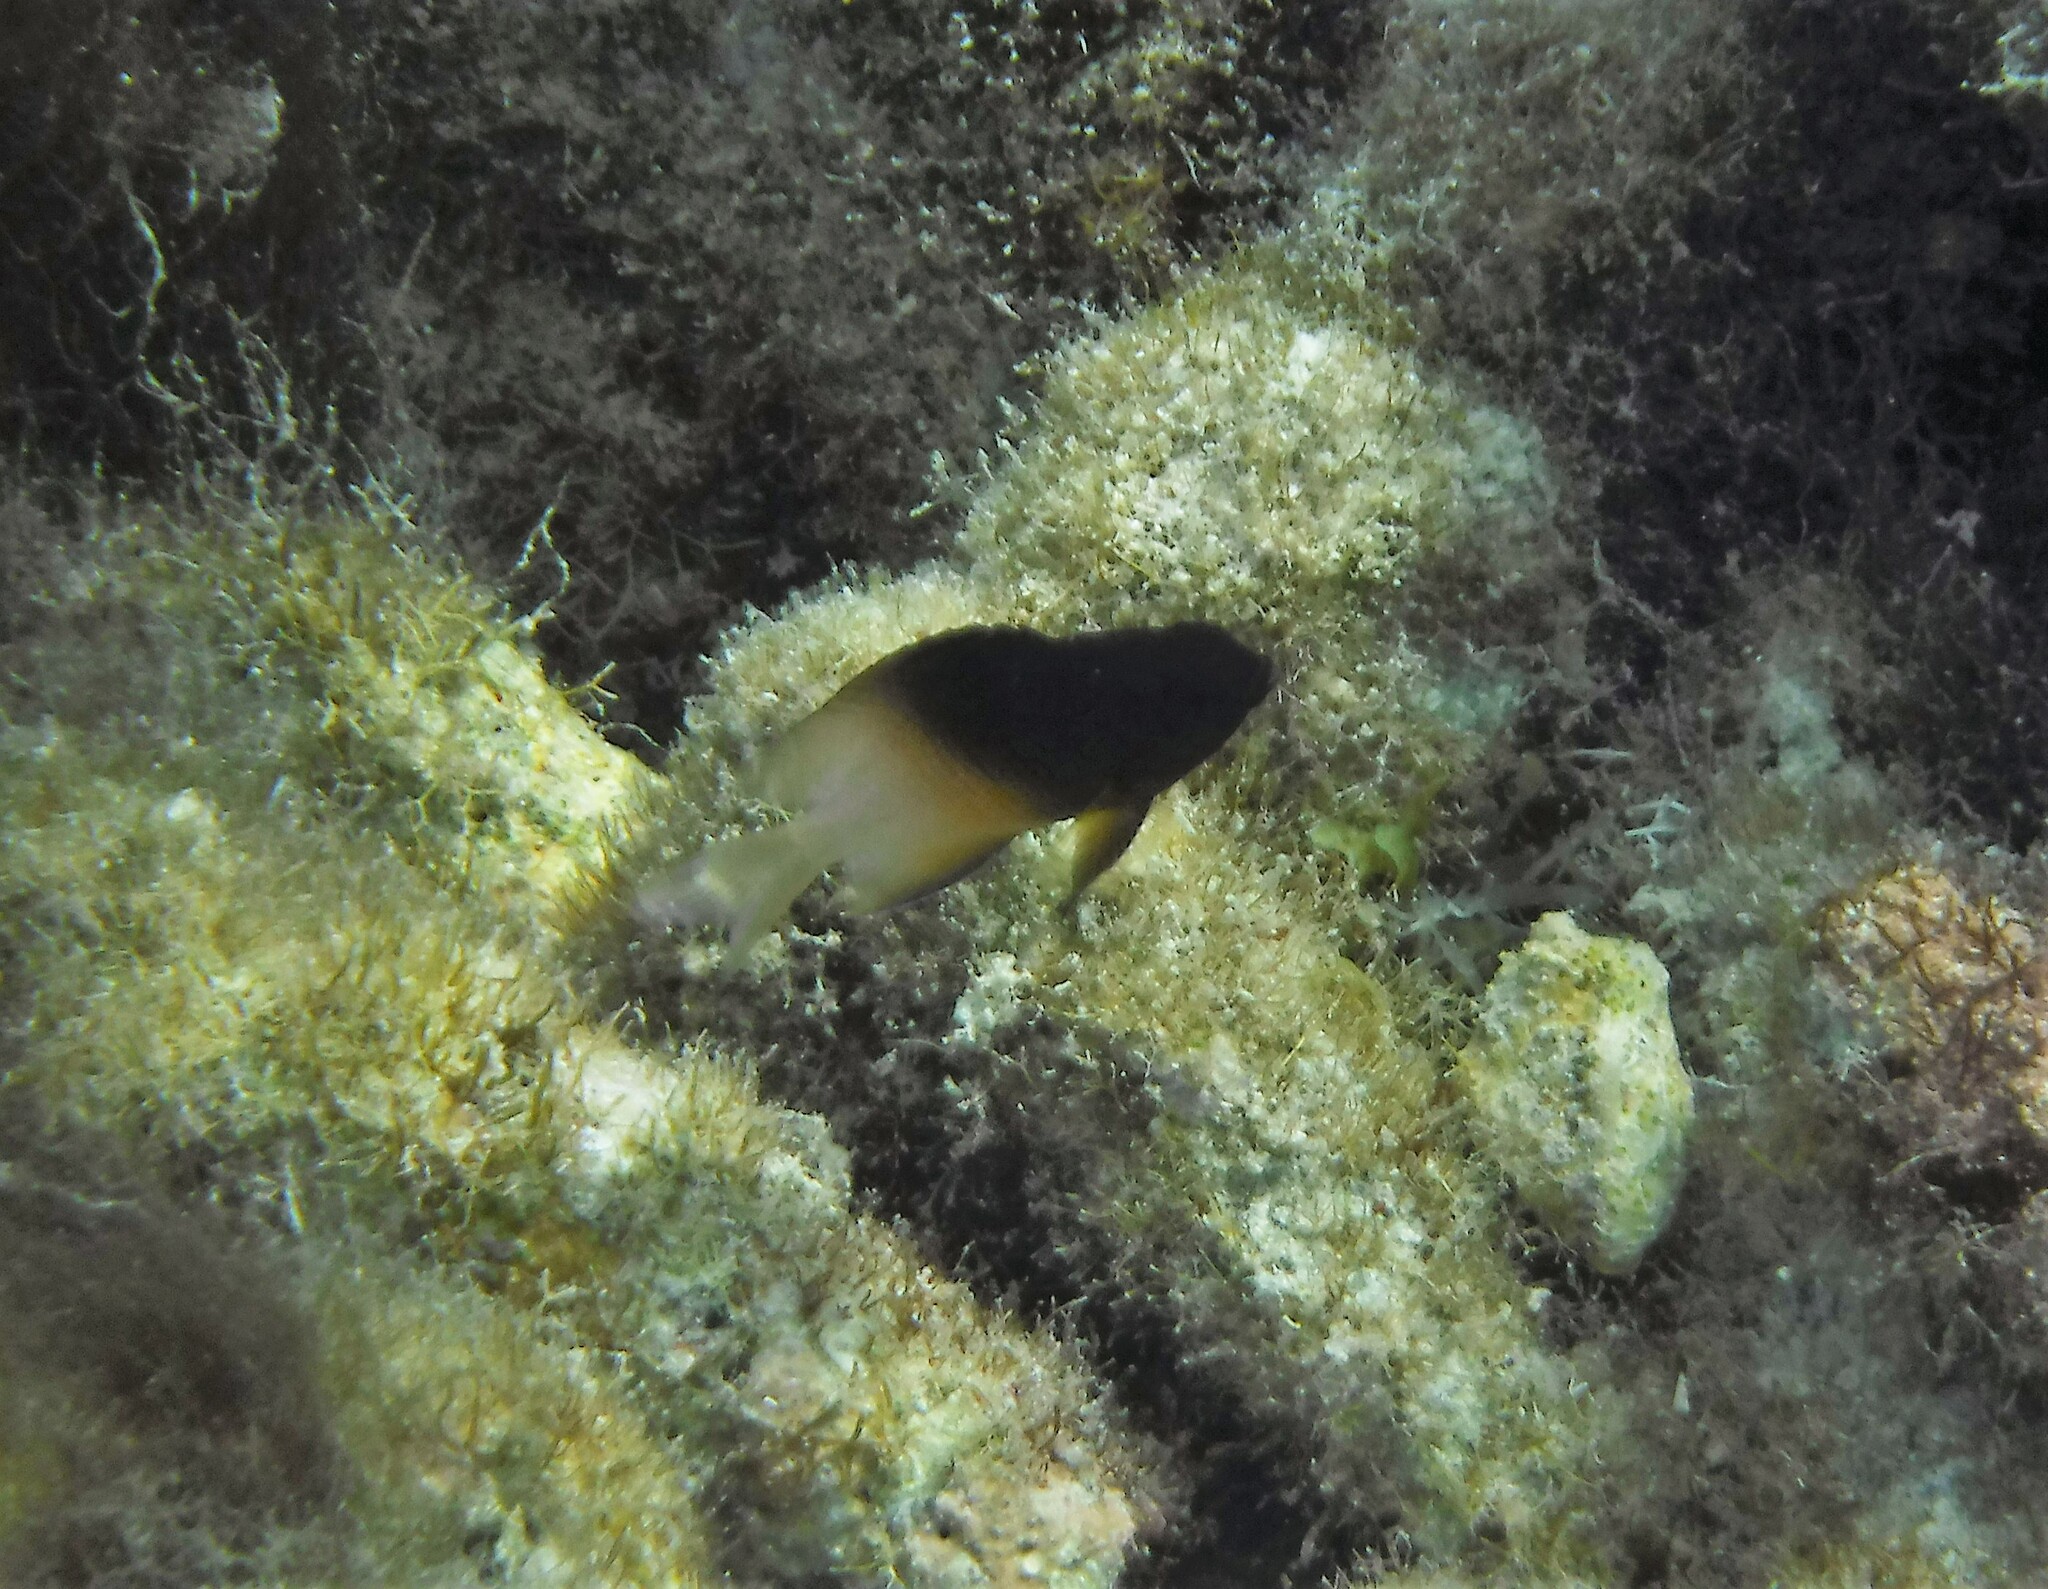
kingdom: Animalia
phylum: Chordata
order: Perciformes
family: Pomacentridae
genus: Stegastes
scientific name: Stegastes partitus
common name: Bicolor damselfish
